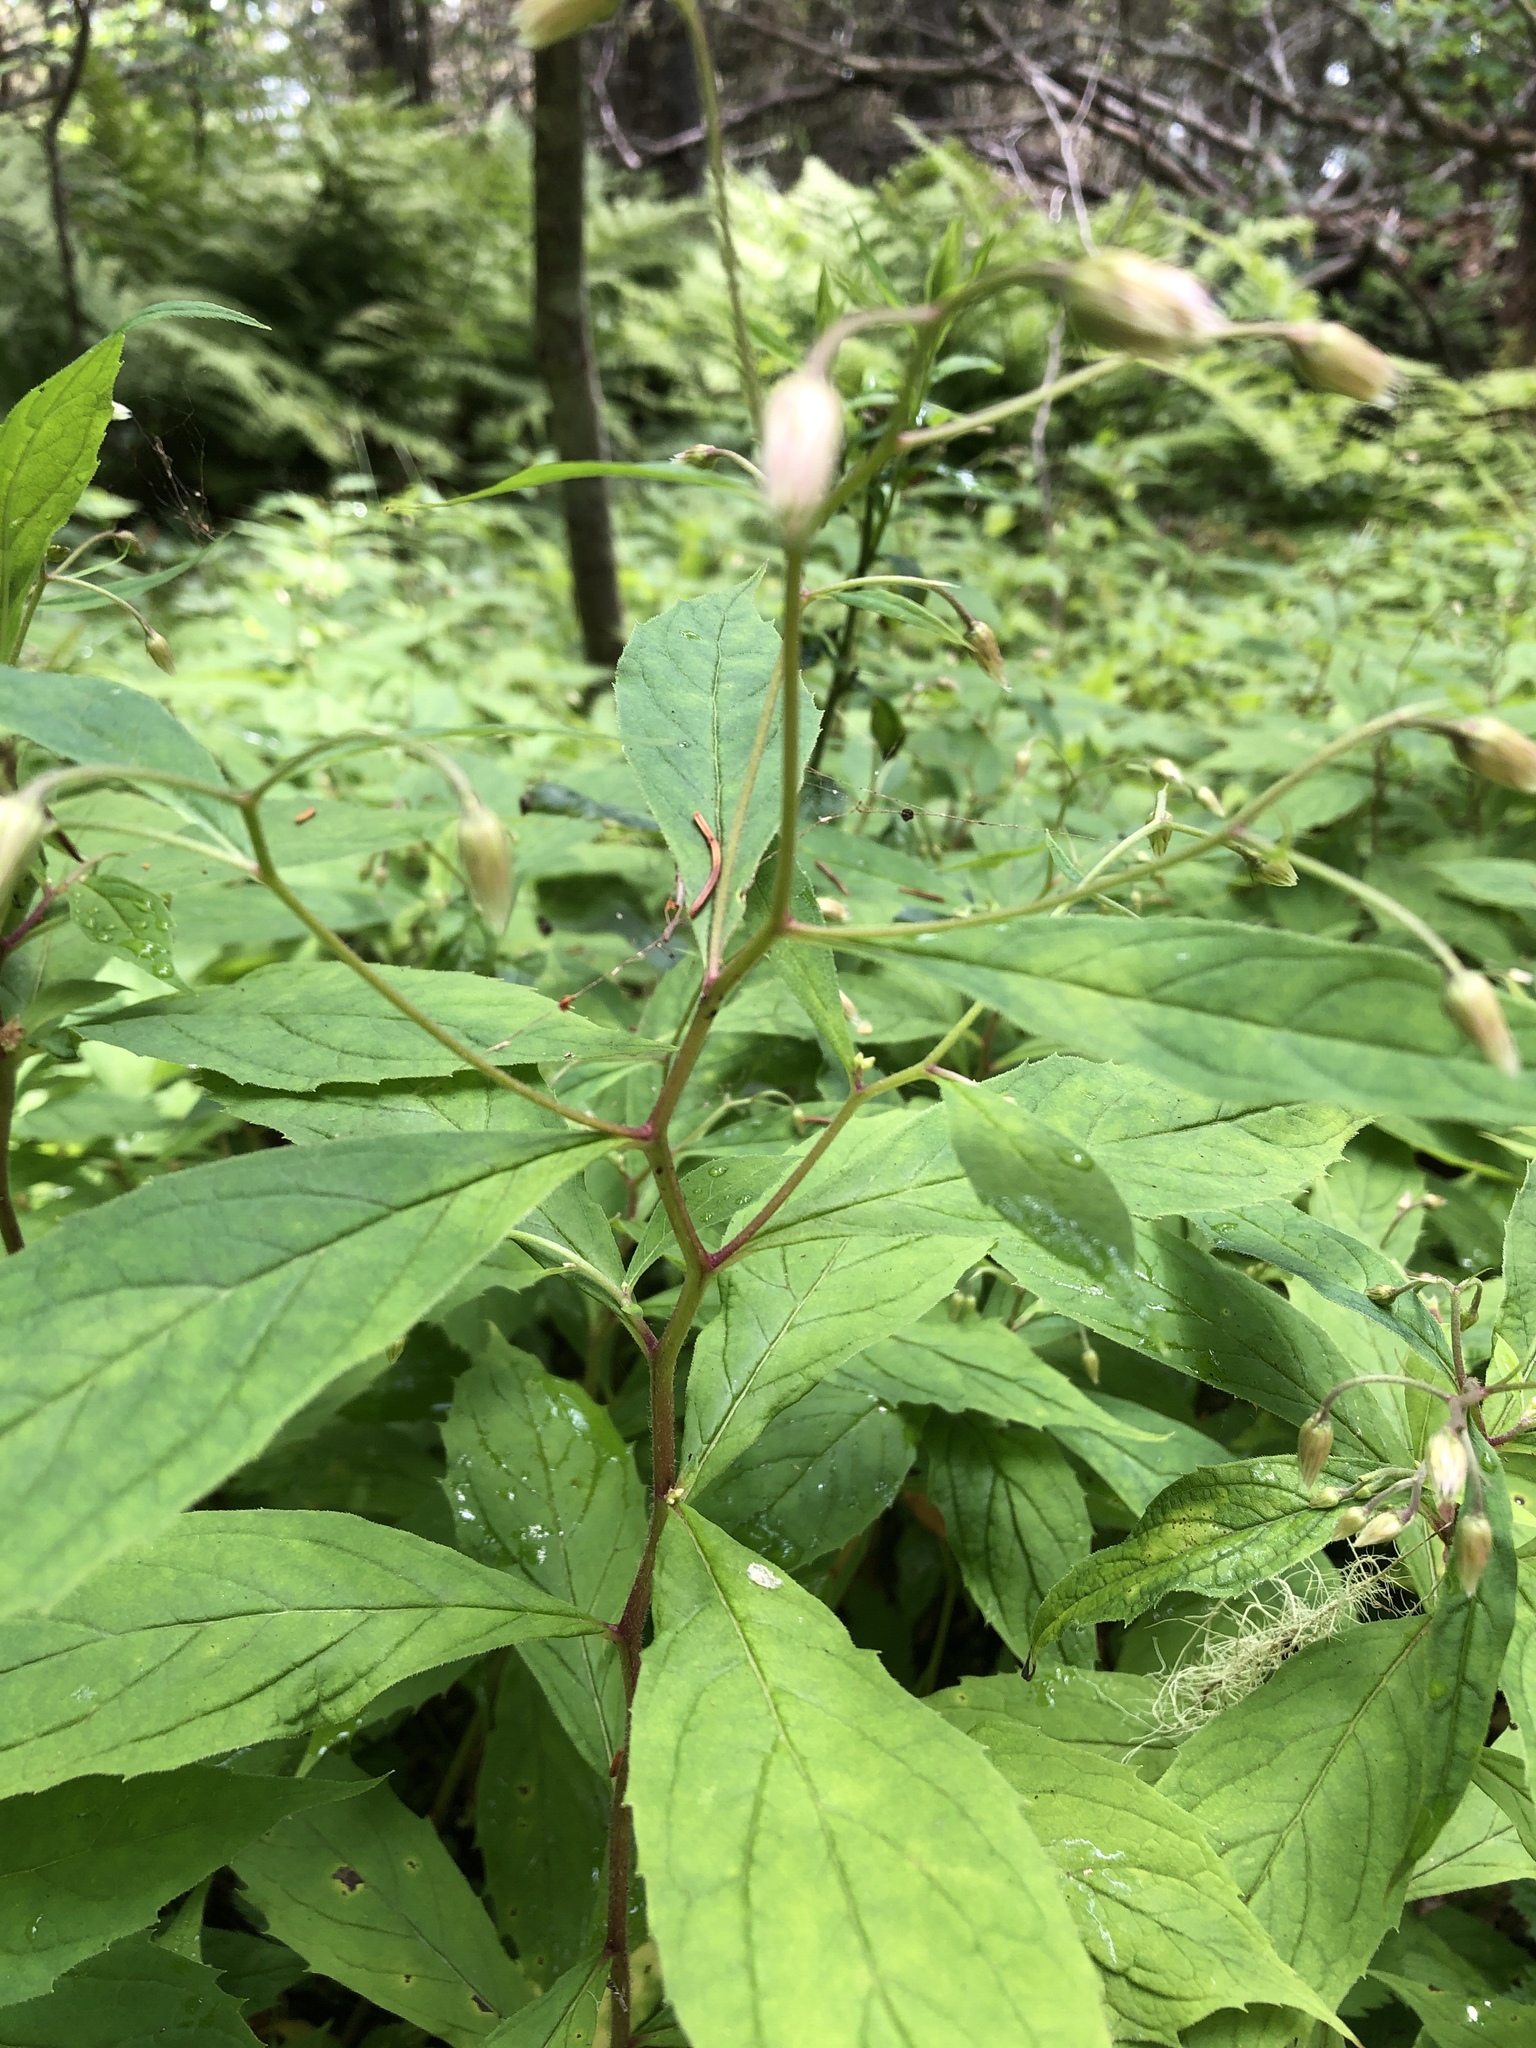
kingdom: Plantae
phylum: Tracheophyta
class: Magnoliopsida
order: Asterales
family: Asteraceae
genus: Oclemena
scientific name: Oclemena acuminata
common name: Mountain aster
